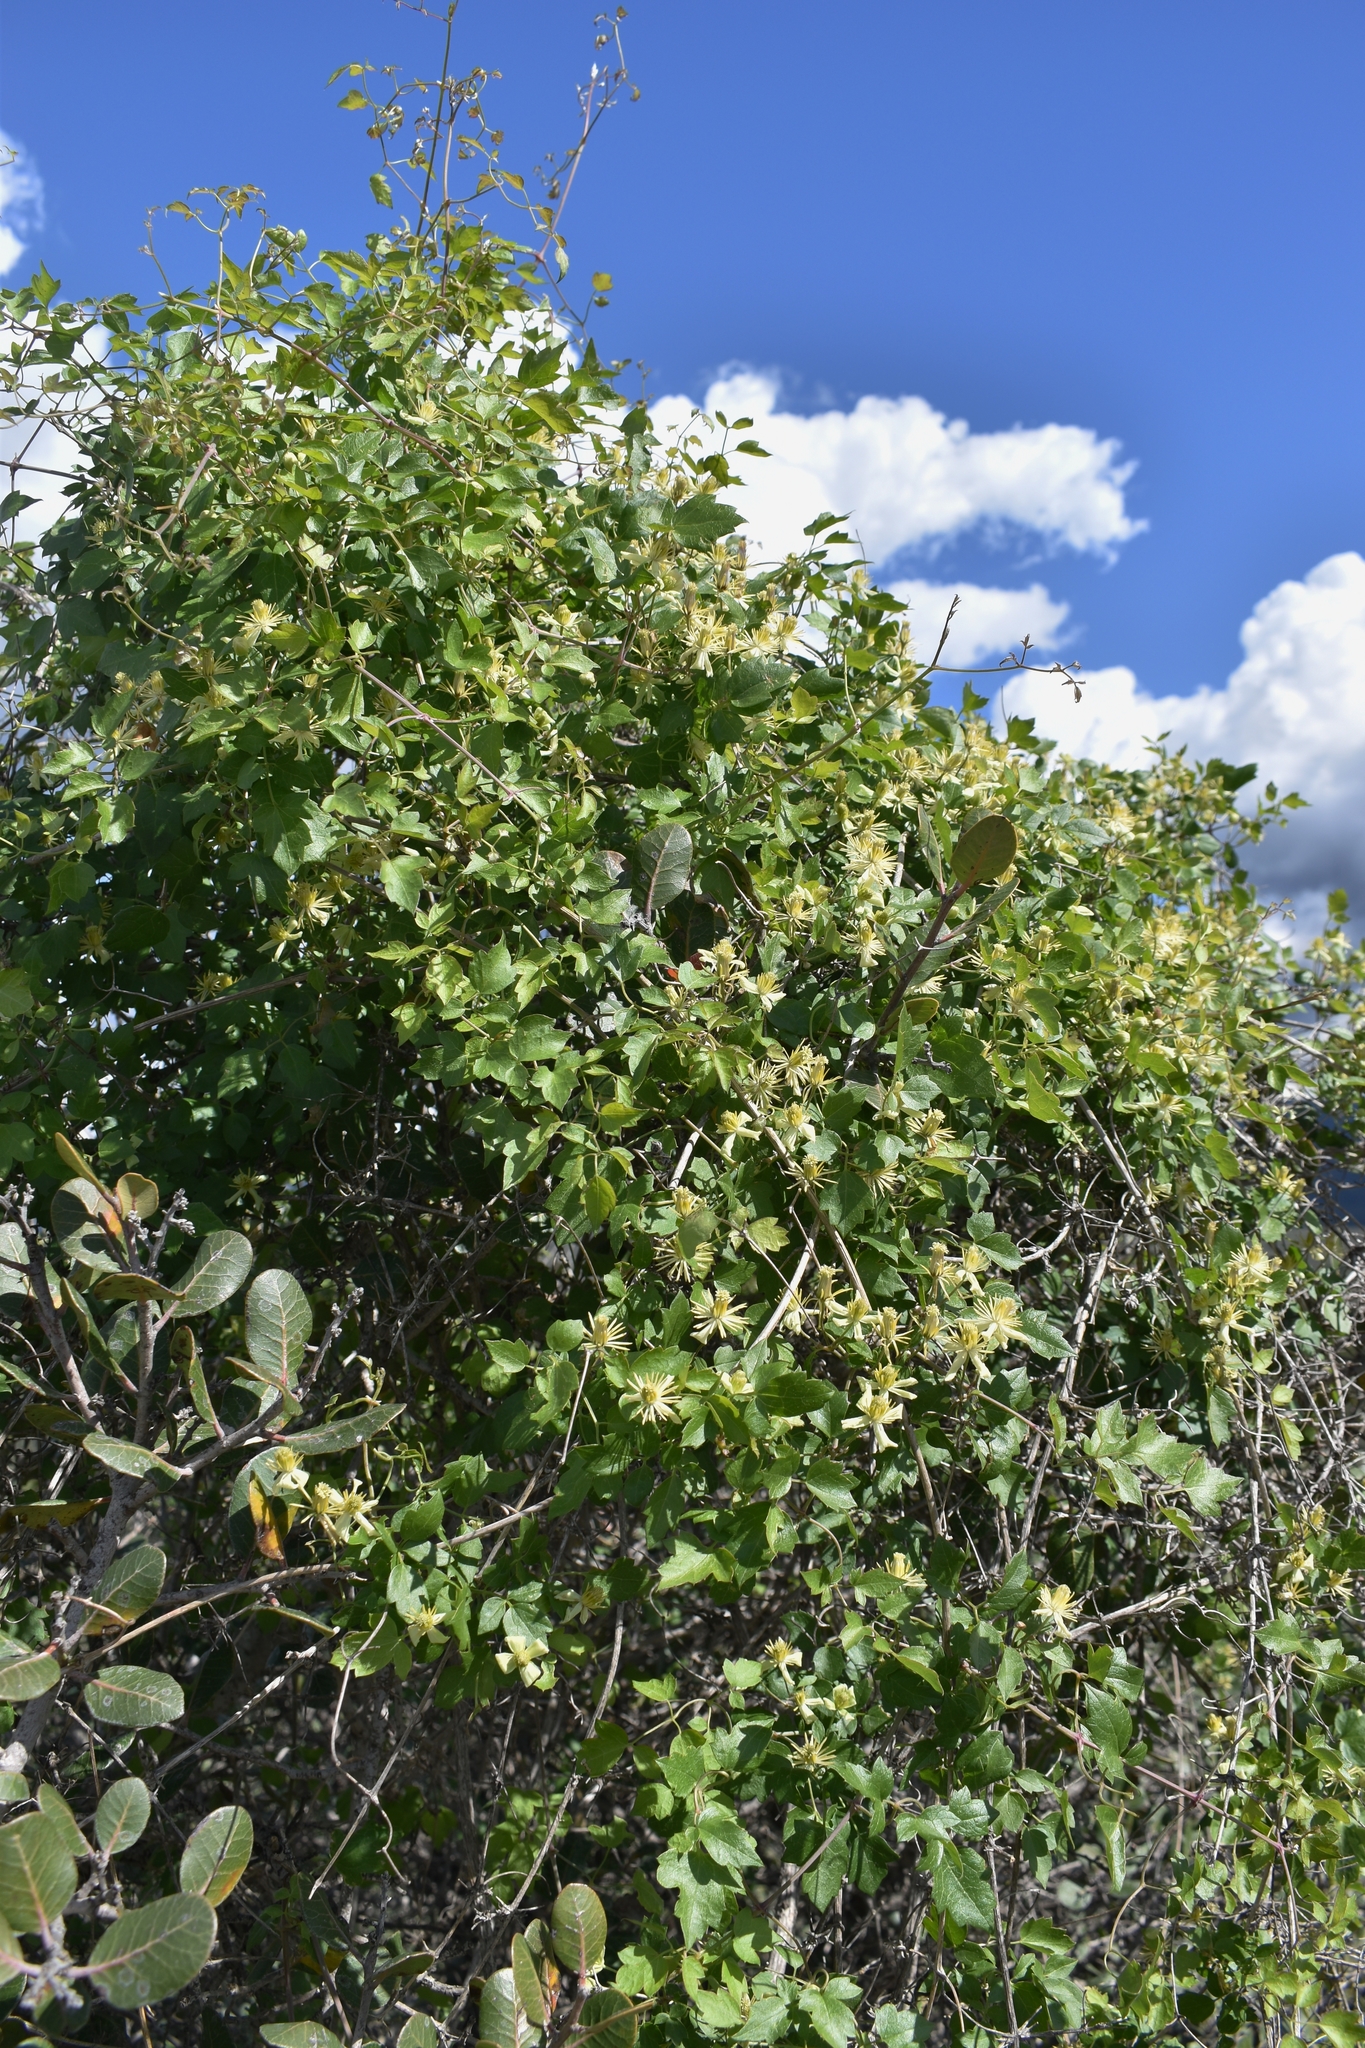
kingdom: Plantae
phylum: Tracheophyta
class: Magnoliopsida
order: Ranunculales
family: Ranunculaceae
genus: Clematis
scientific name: Clematis pauciflora
